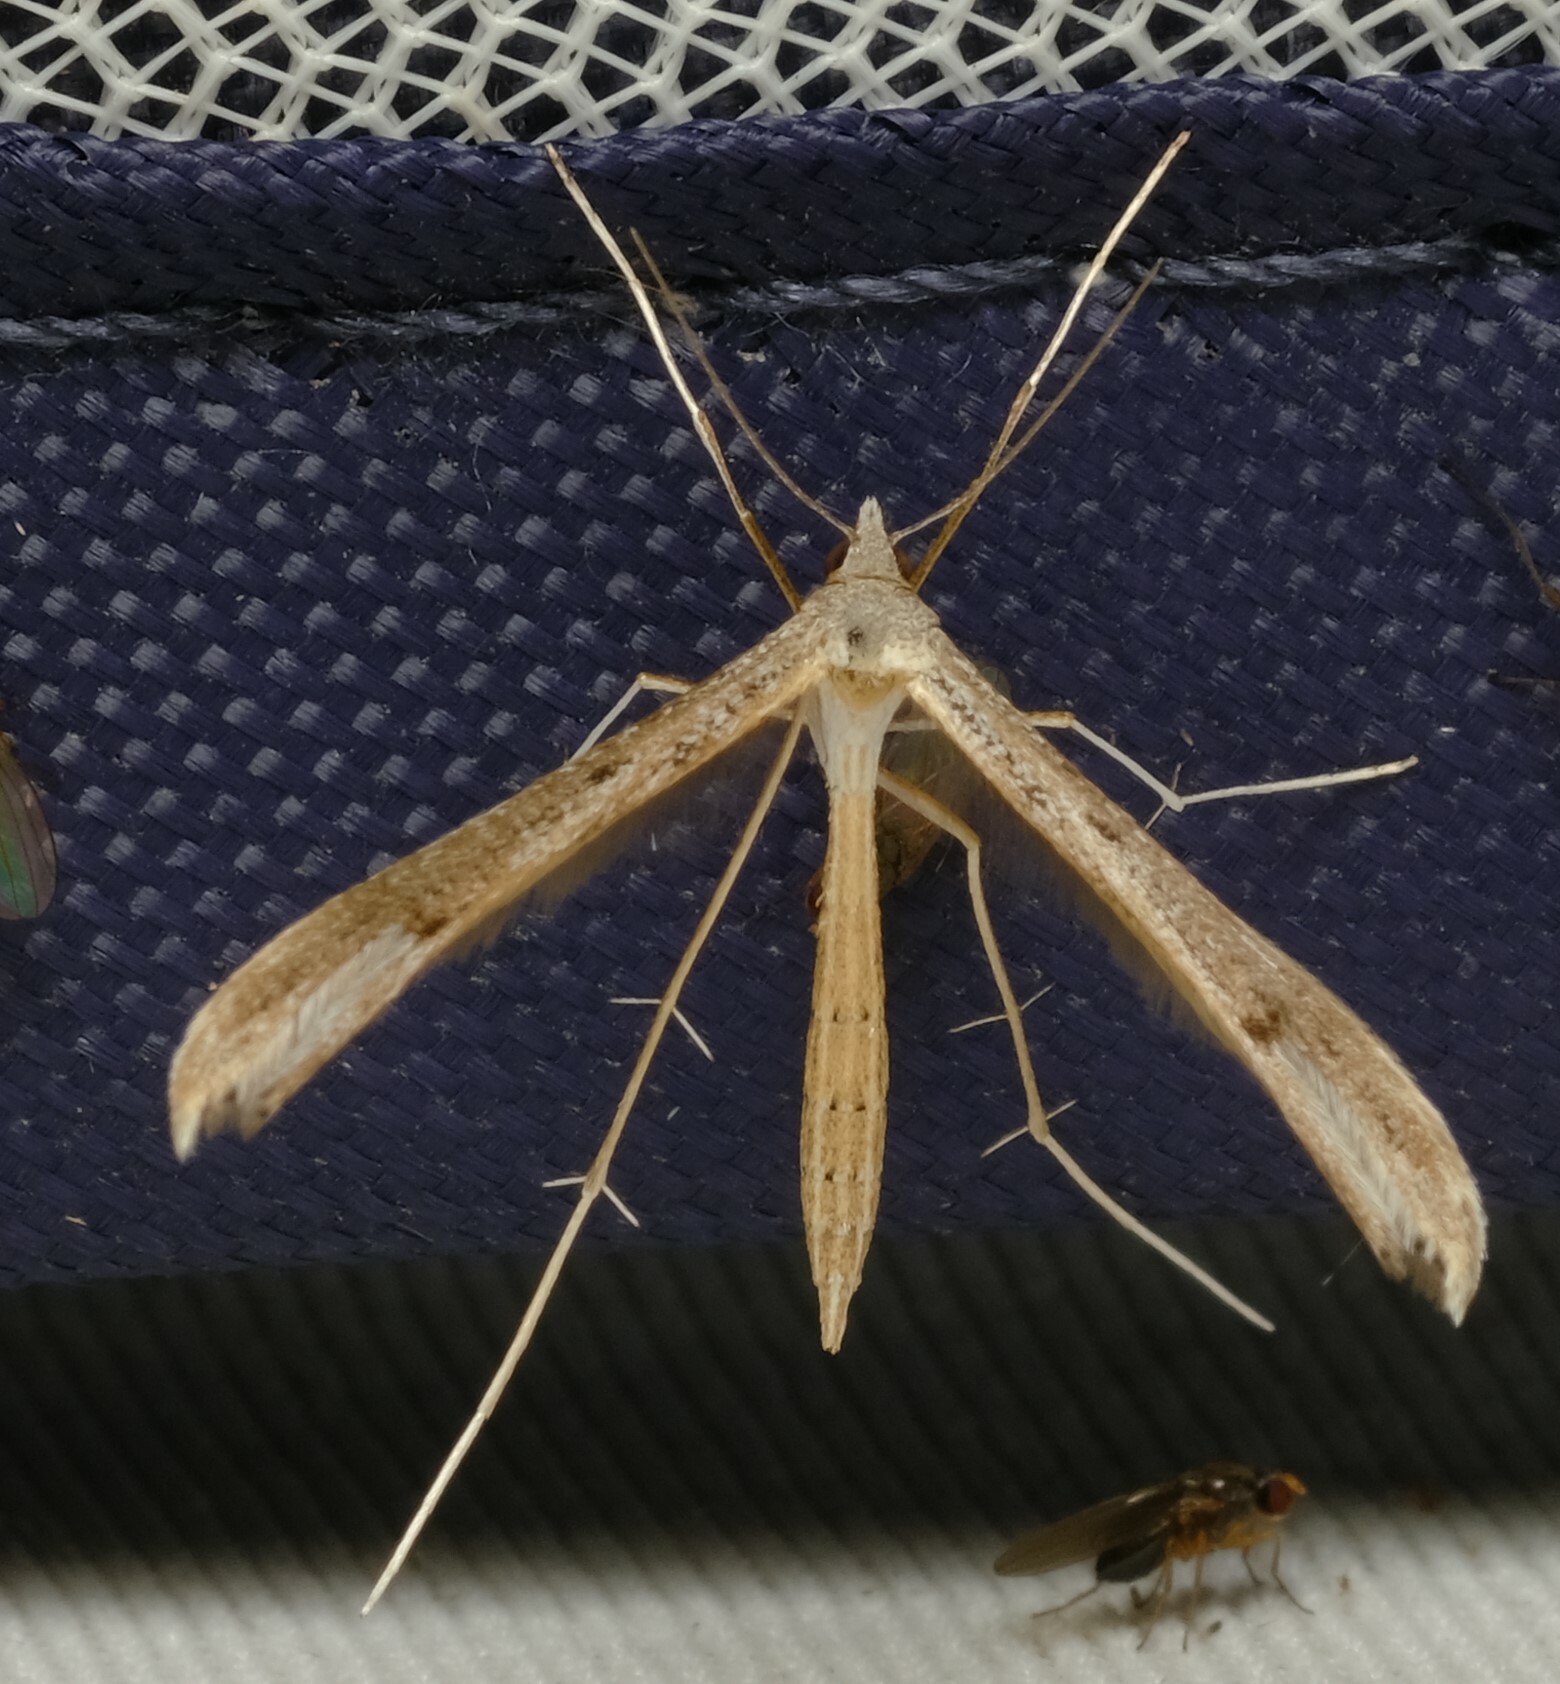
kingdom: Animalia
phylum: Arthropoda
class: Insecta
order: Lepidoptera
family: Pterophoridae
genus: Stenoptilia
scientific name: Stenoptilia zophodactylus
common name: Dowdy plume
